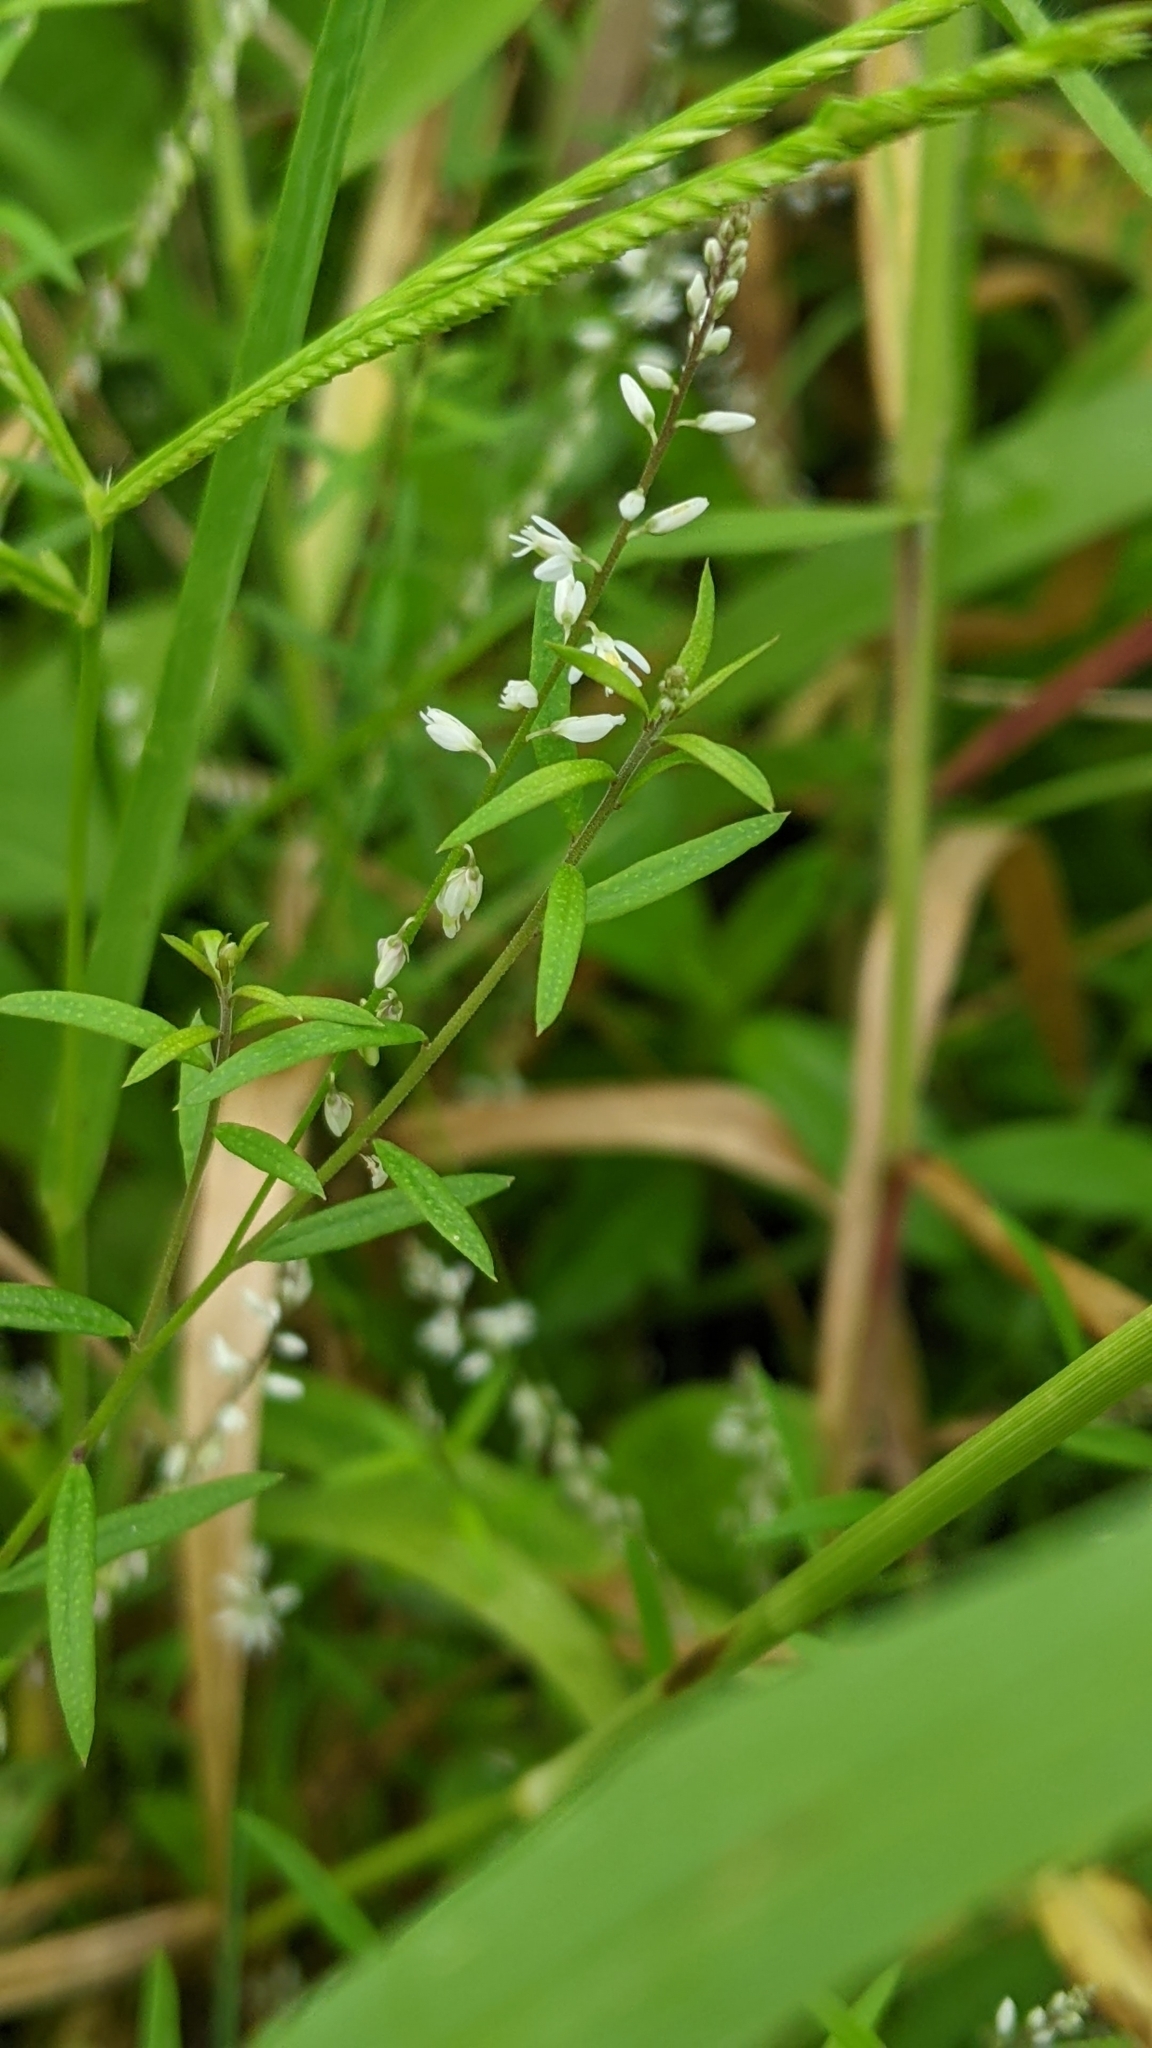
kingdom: Plantae
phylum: Tracheophyta
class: Magnoliopsida
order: Fabales
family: Polygalaceae
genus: Polygala
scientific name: Polygala paniculata
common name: Orosne
